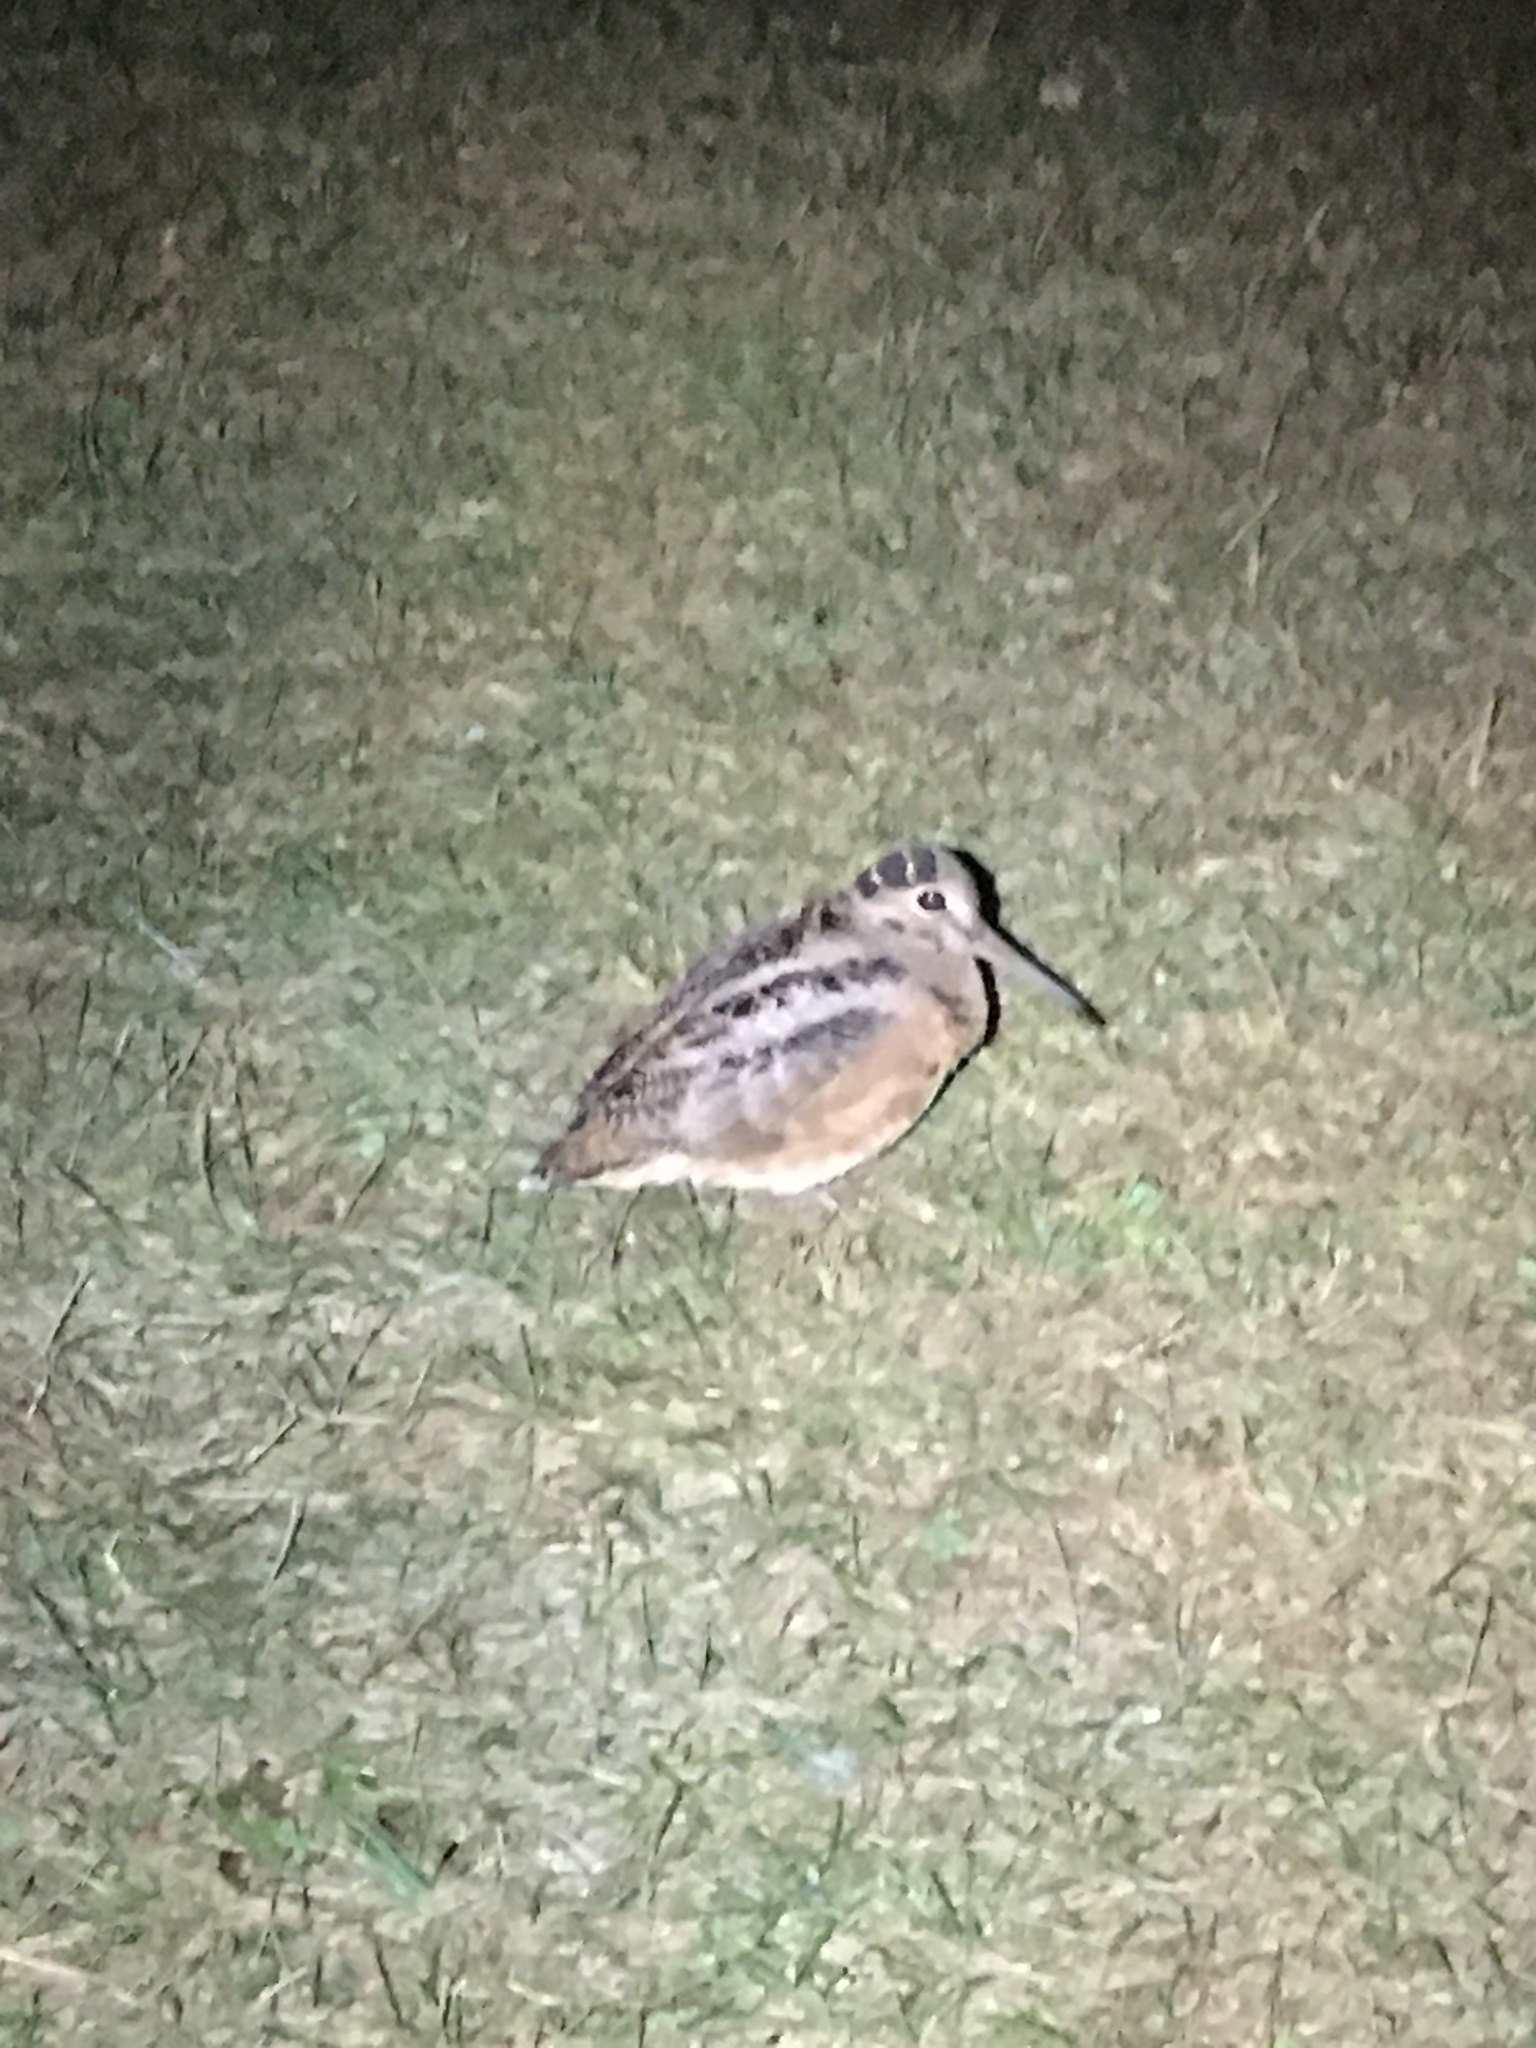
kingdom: Animalia
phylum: Chordata
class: Aves
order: Charadriiformes
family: Scolopacidae
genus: Scolopax
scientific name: Scolopax minor
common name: American woodcock
